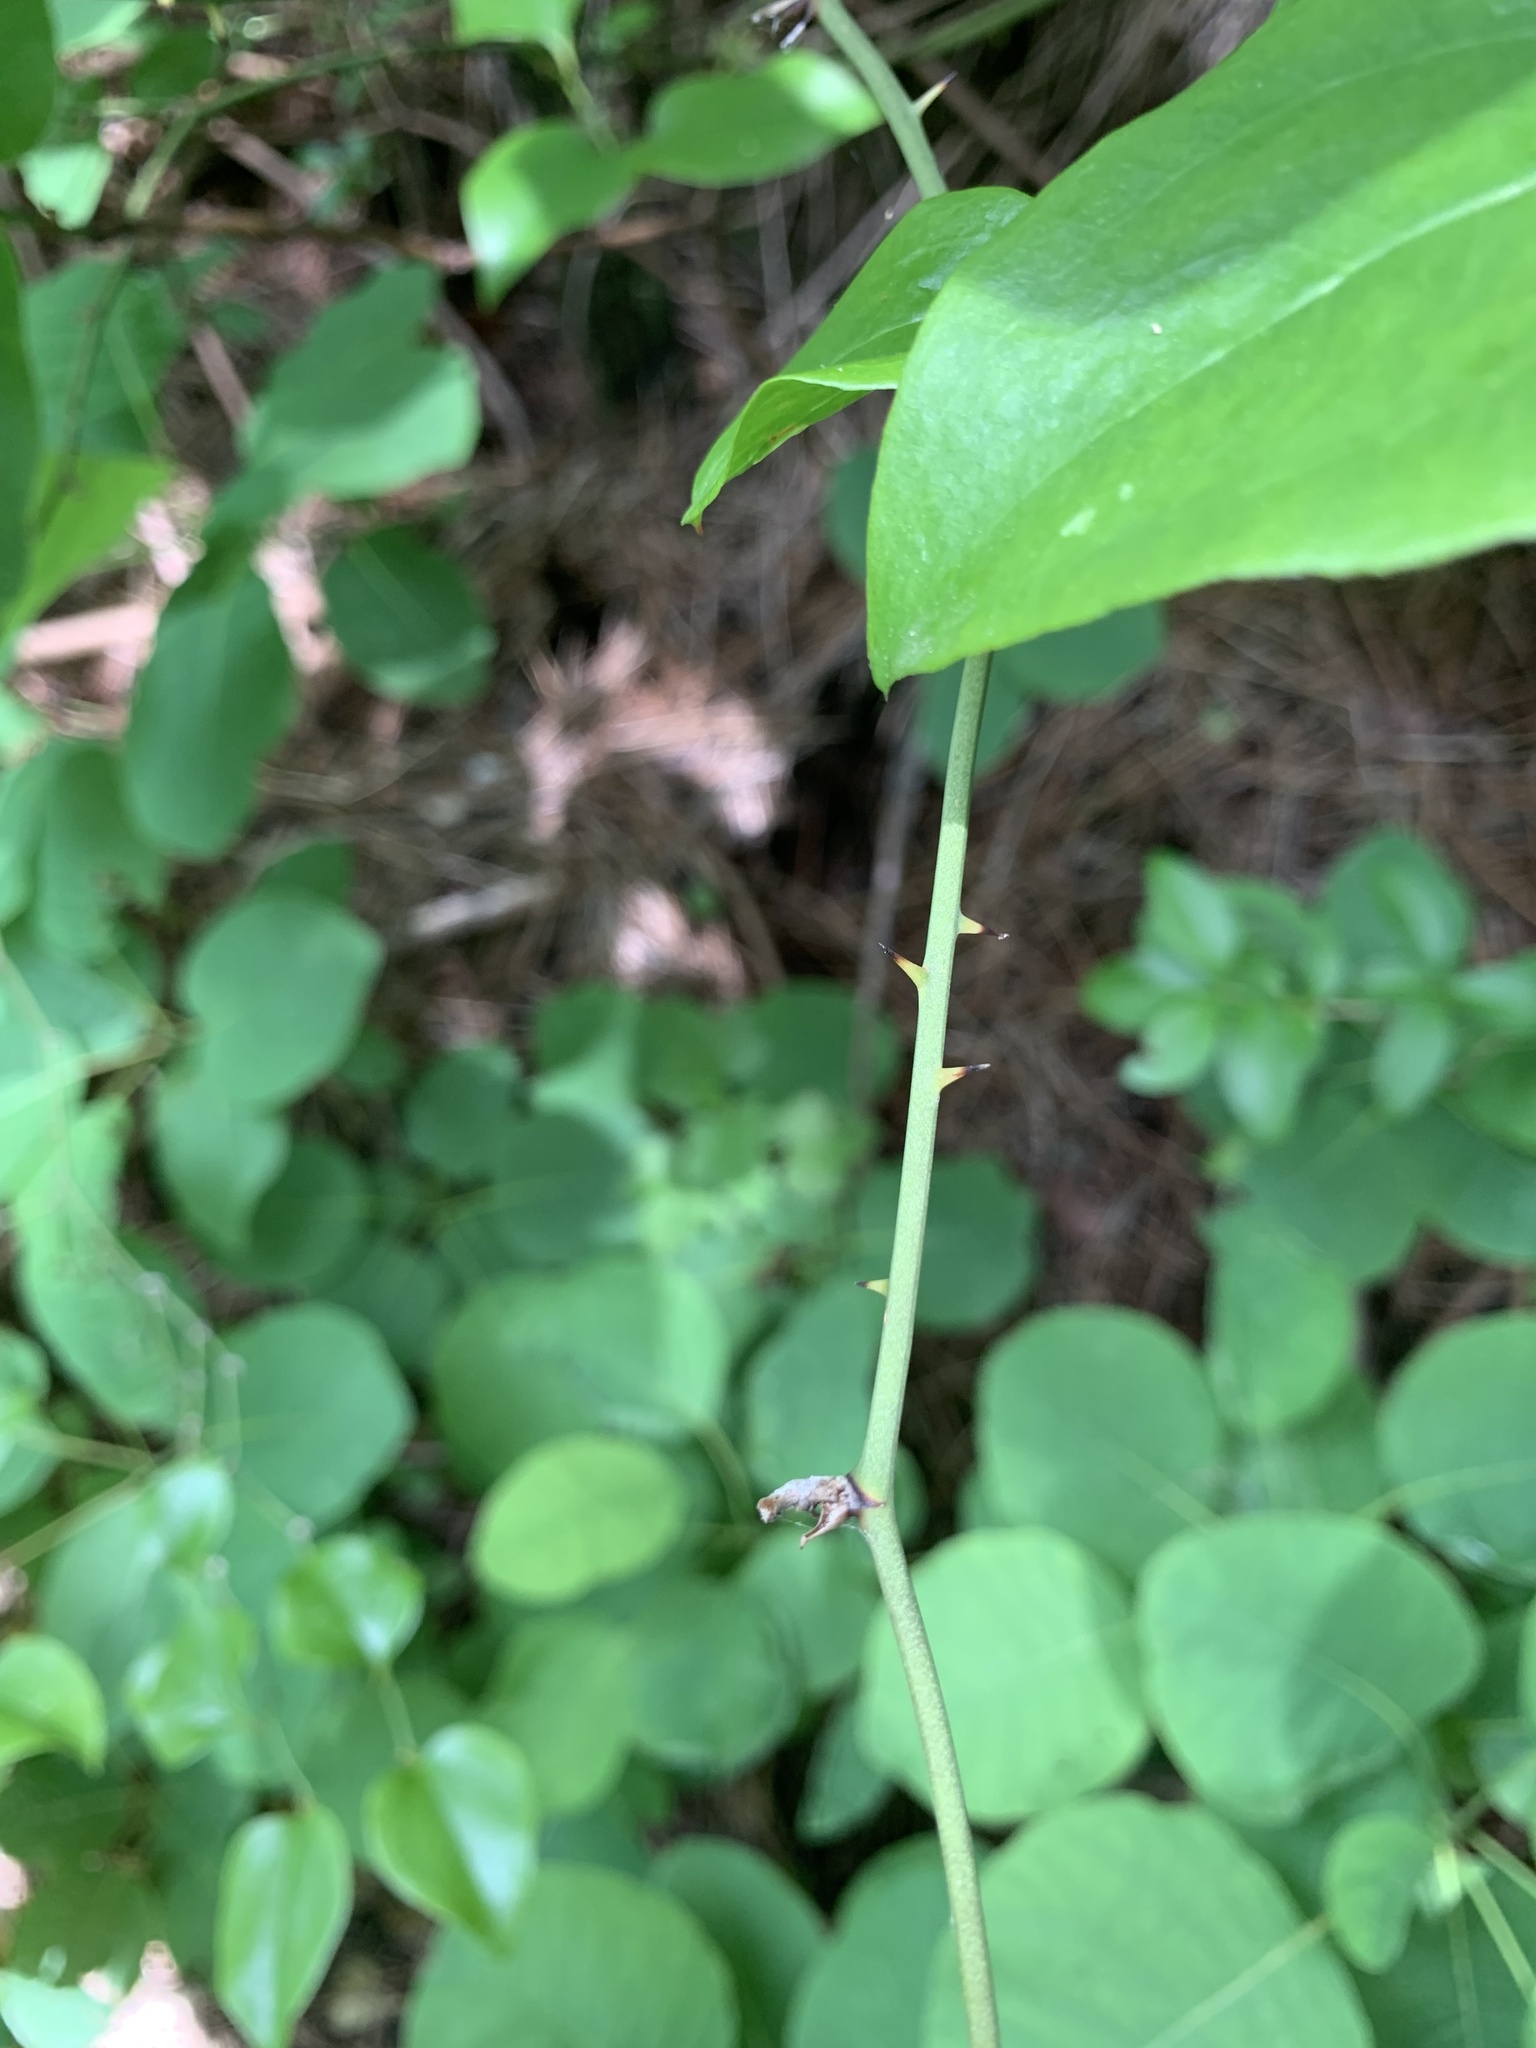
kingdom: Plantae
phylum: Tracheophyta
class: Liliopsida
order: Liliales
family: Smilacaceae
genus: Smilax
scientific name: Smilax excelsa
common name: Larger smilax
